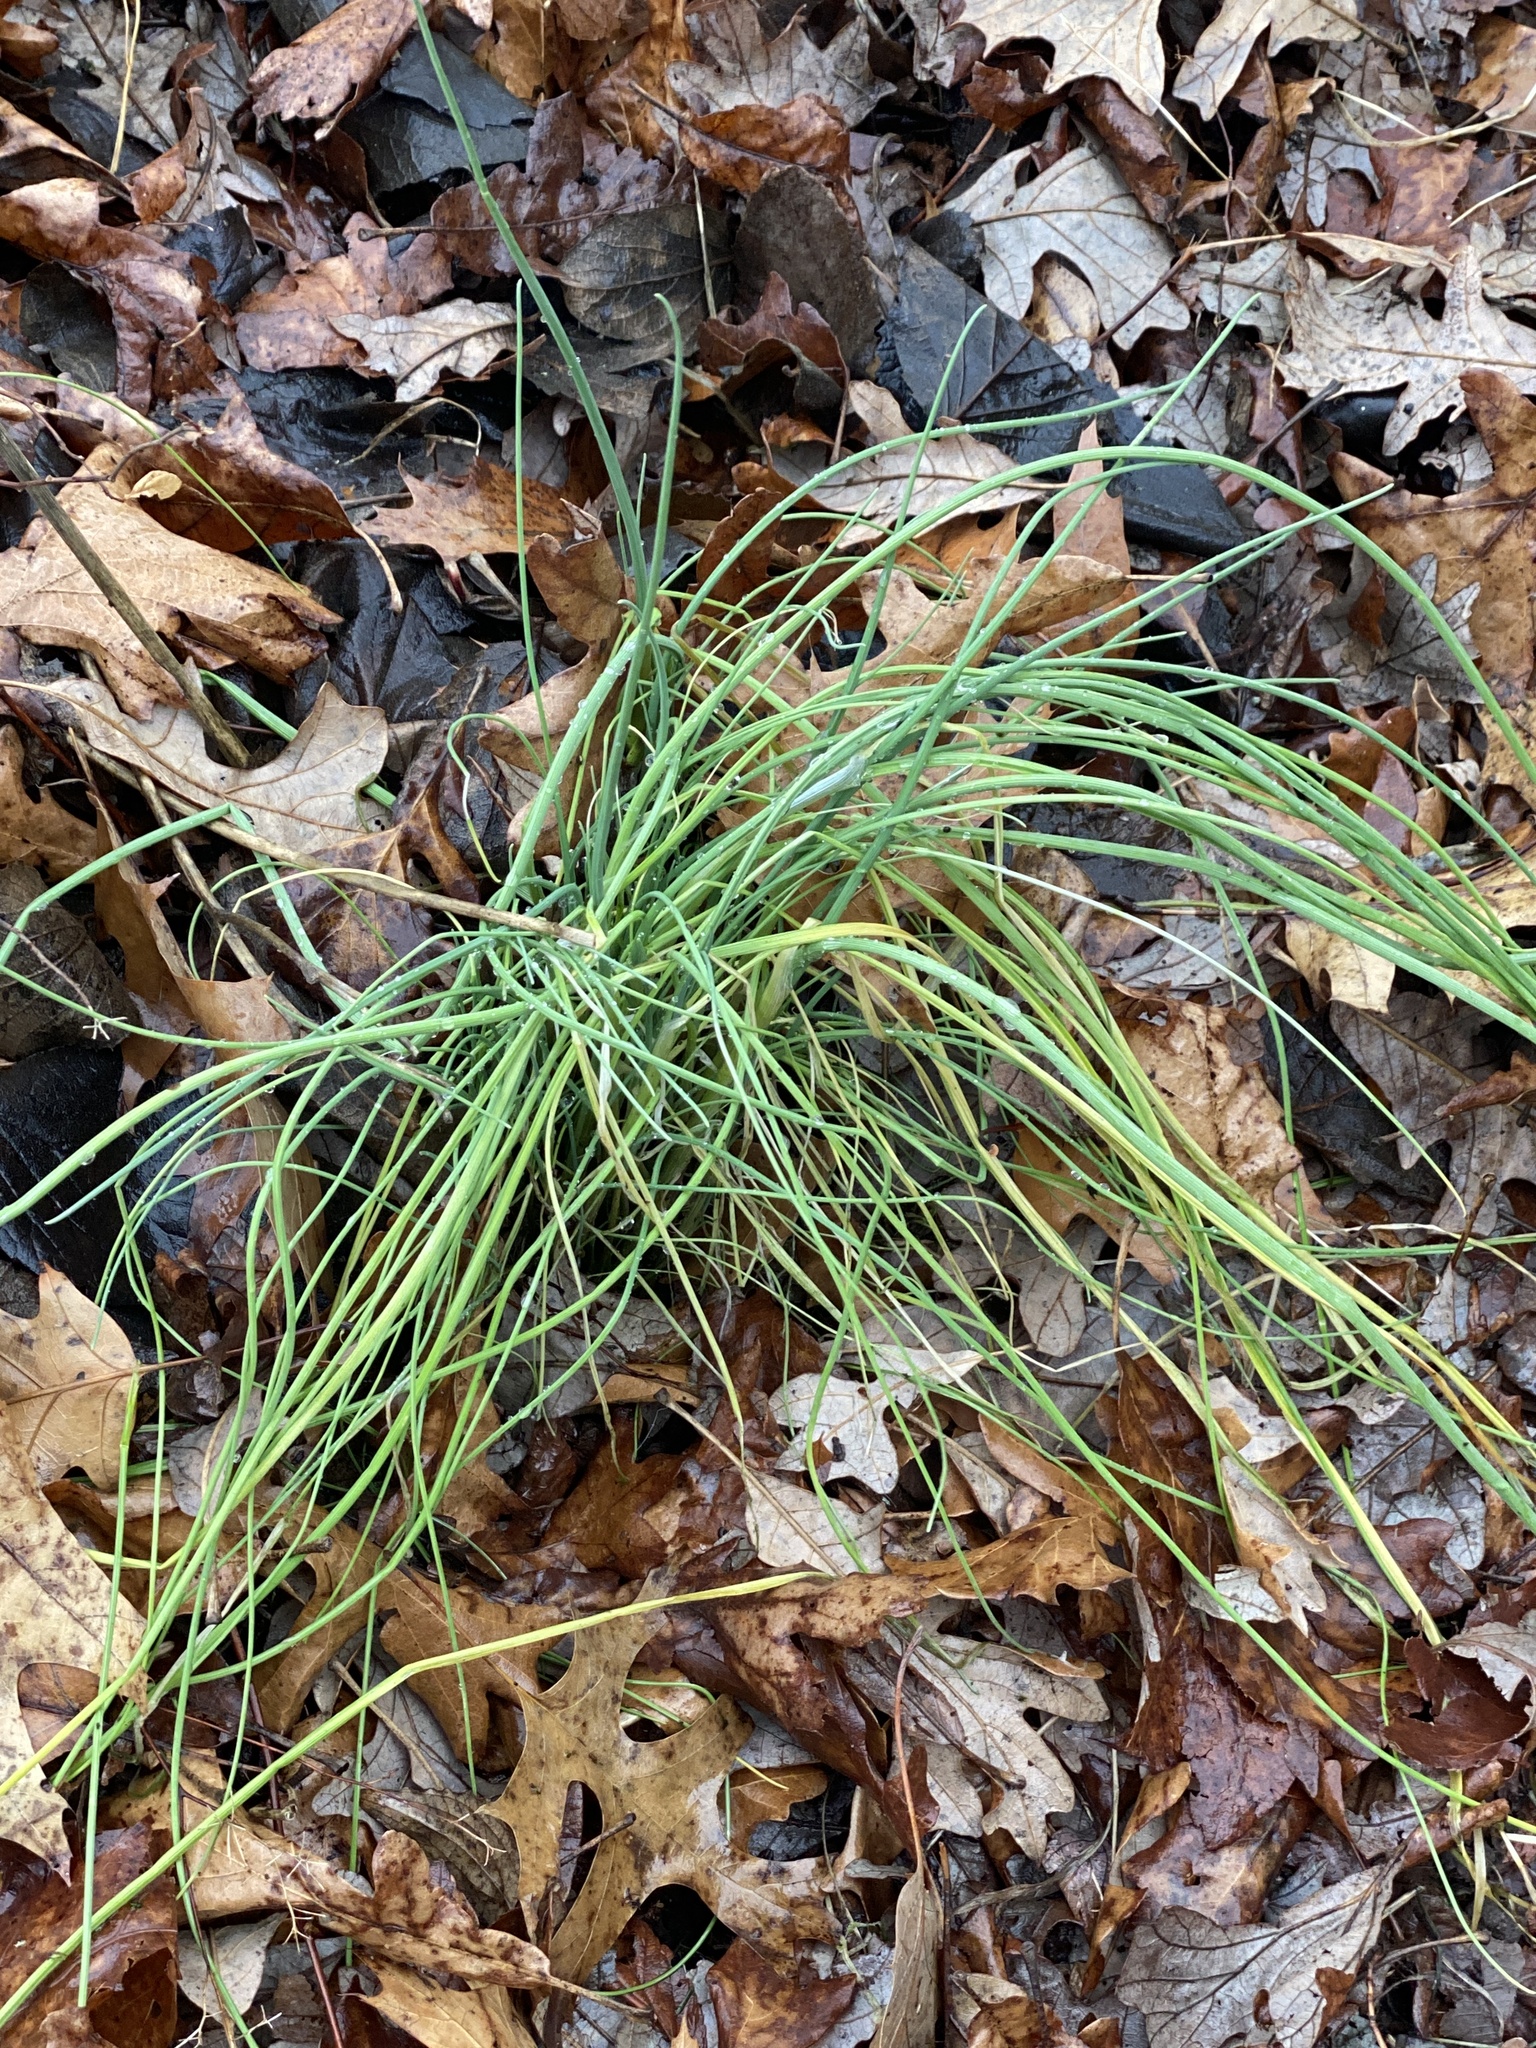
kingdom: Plantae
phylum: Tracheophyta
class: Liliopsida
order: Asparagales
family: Amaryllidaceae
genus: Allium
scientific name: Allium vineale
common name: Crow garlic
